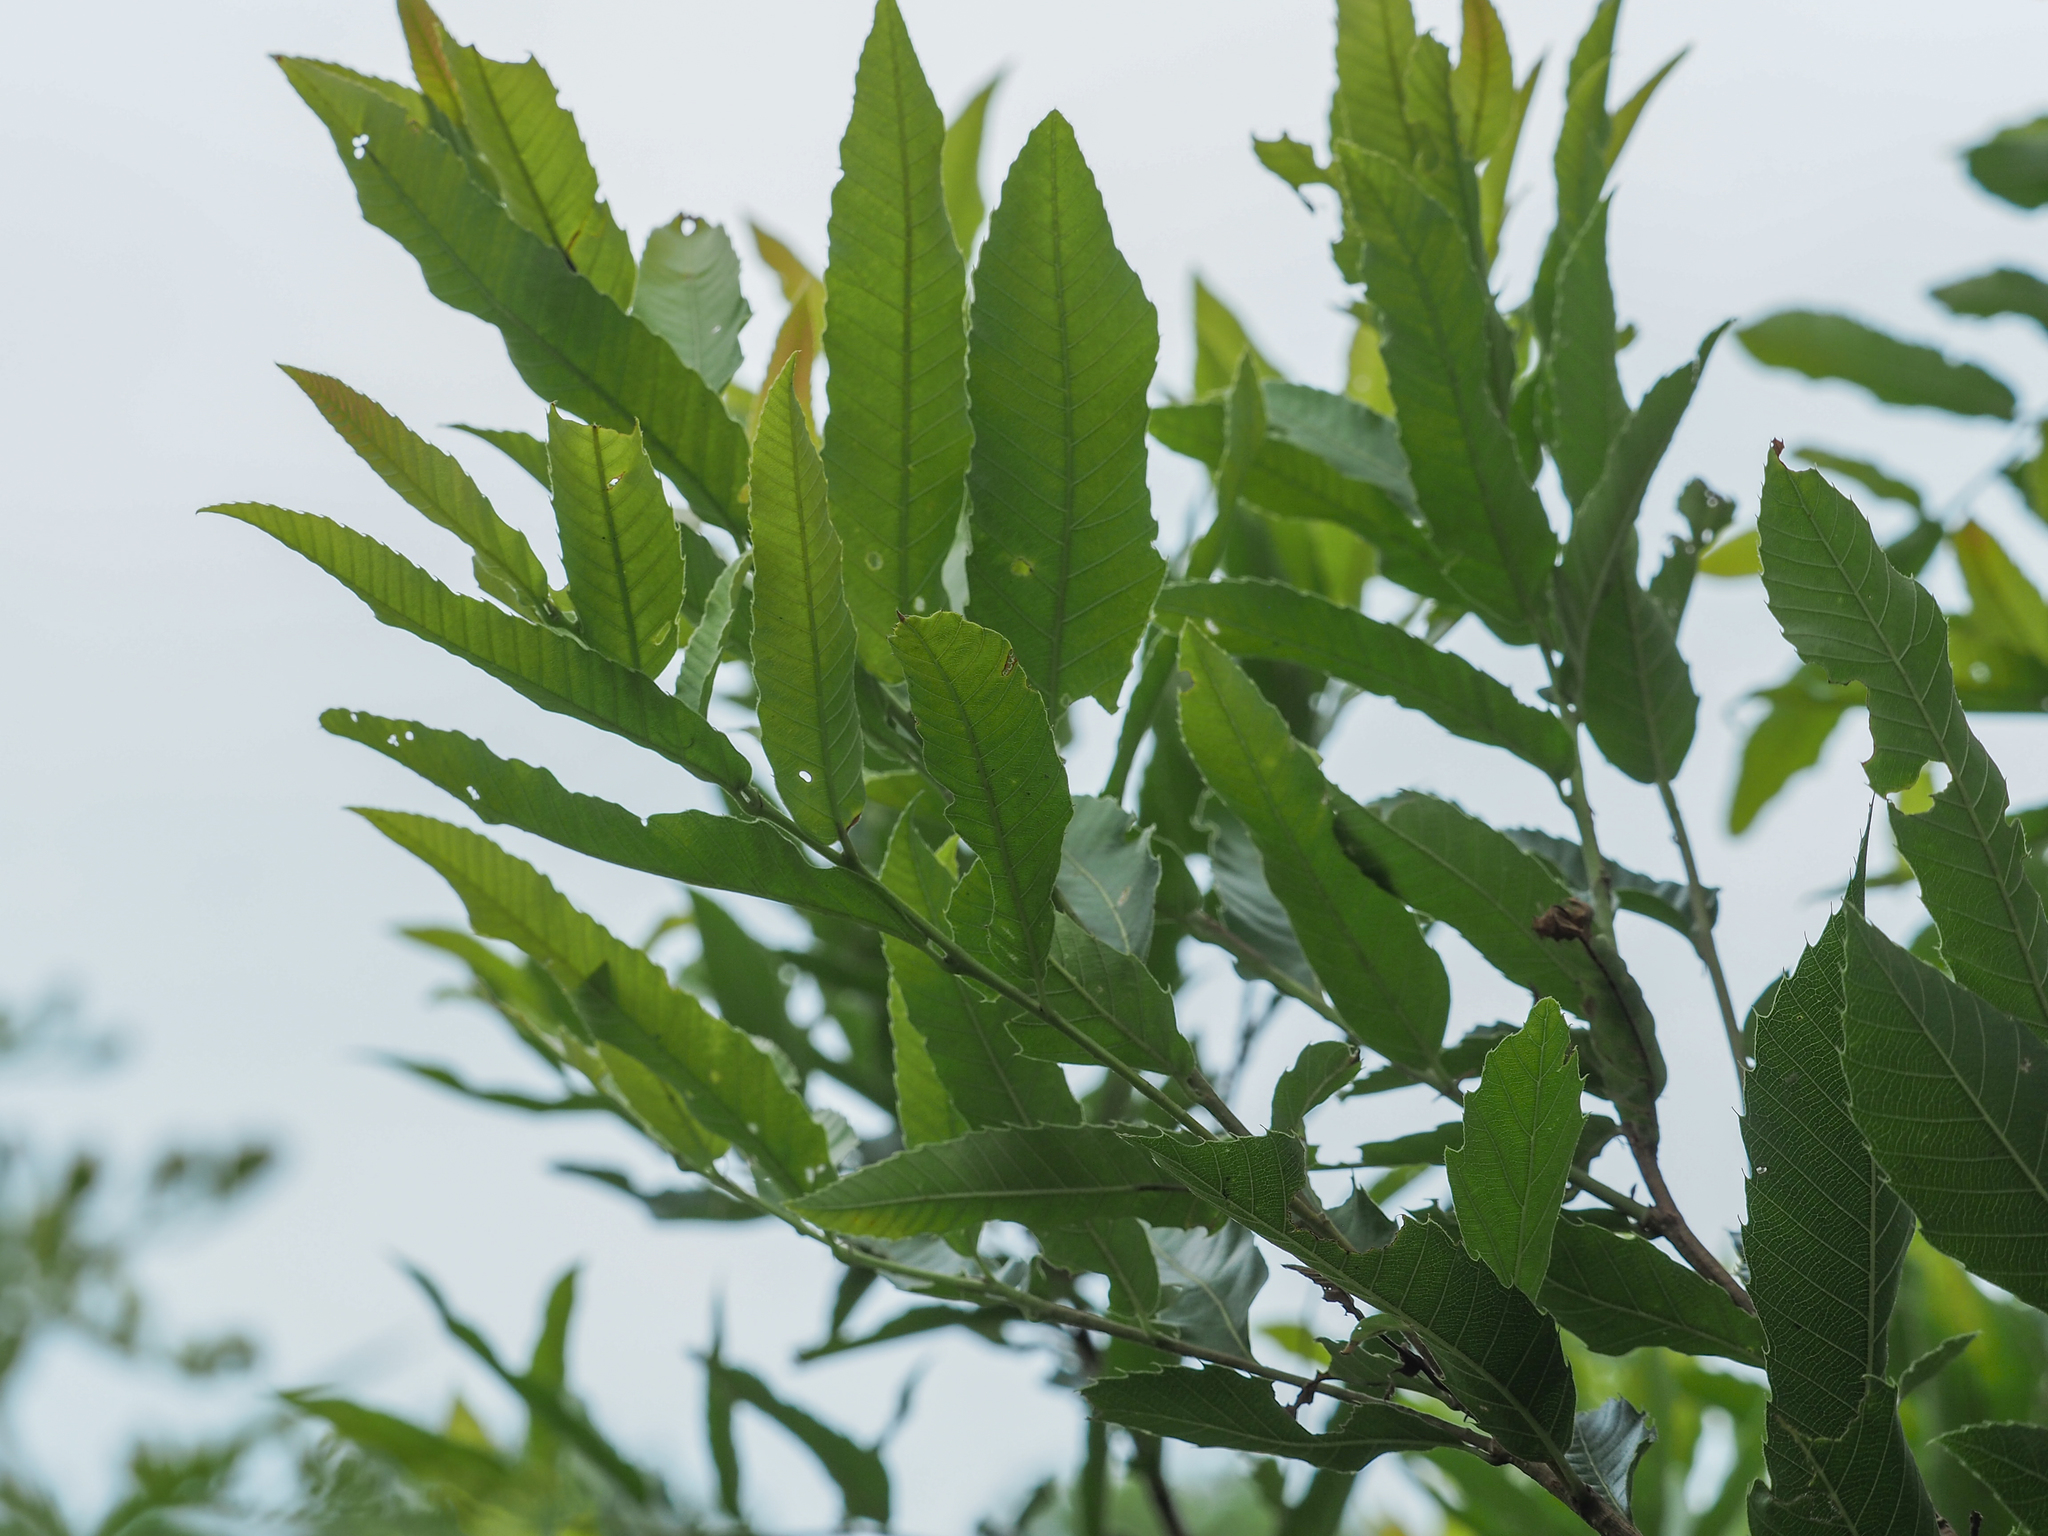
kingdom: Plantae
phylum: Tracheophyta
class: Magnoliopsida
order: Fagales
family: Fagaceae
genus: Quercus
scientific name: Quercus acutissima
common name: Sawtooth oak
